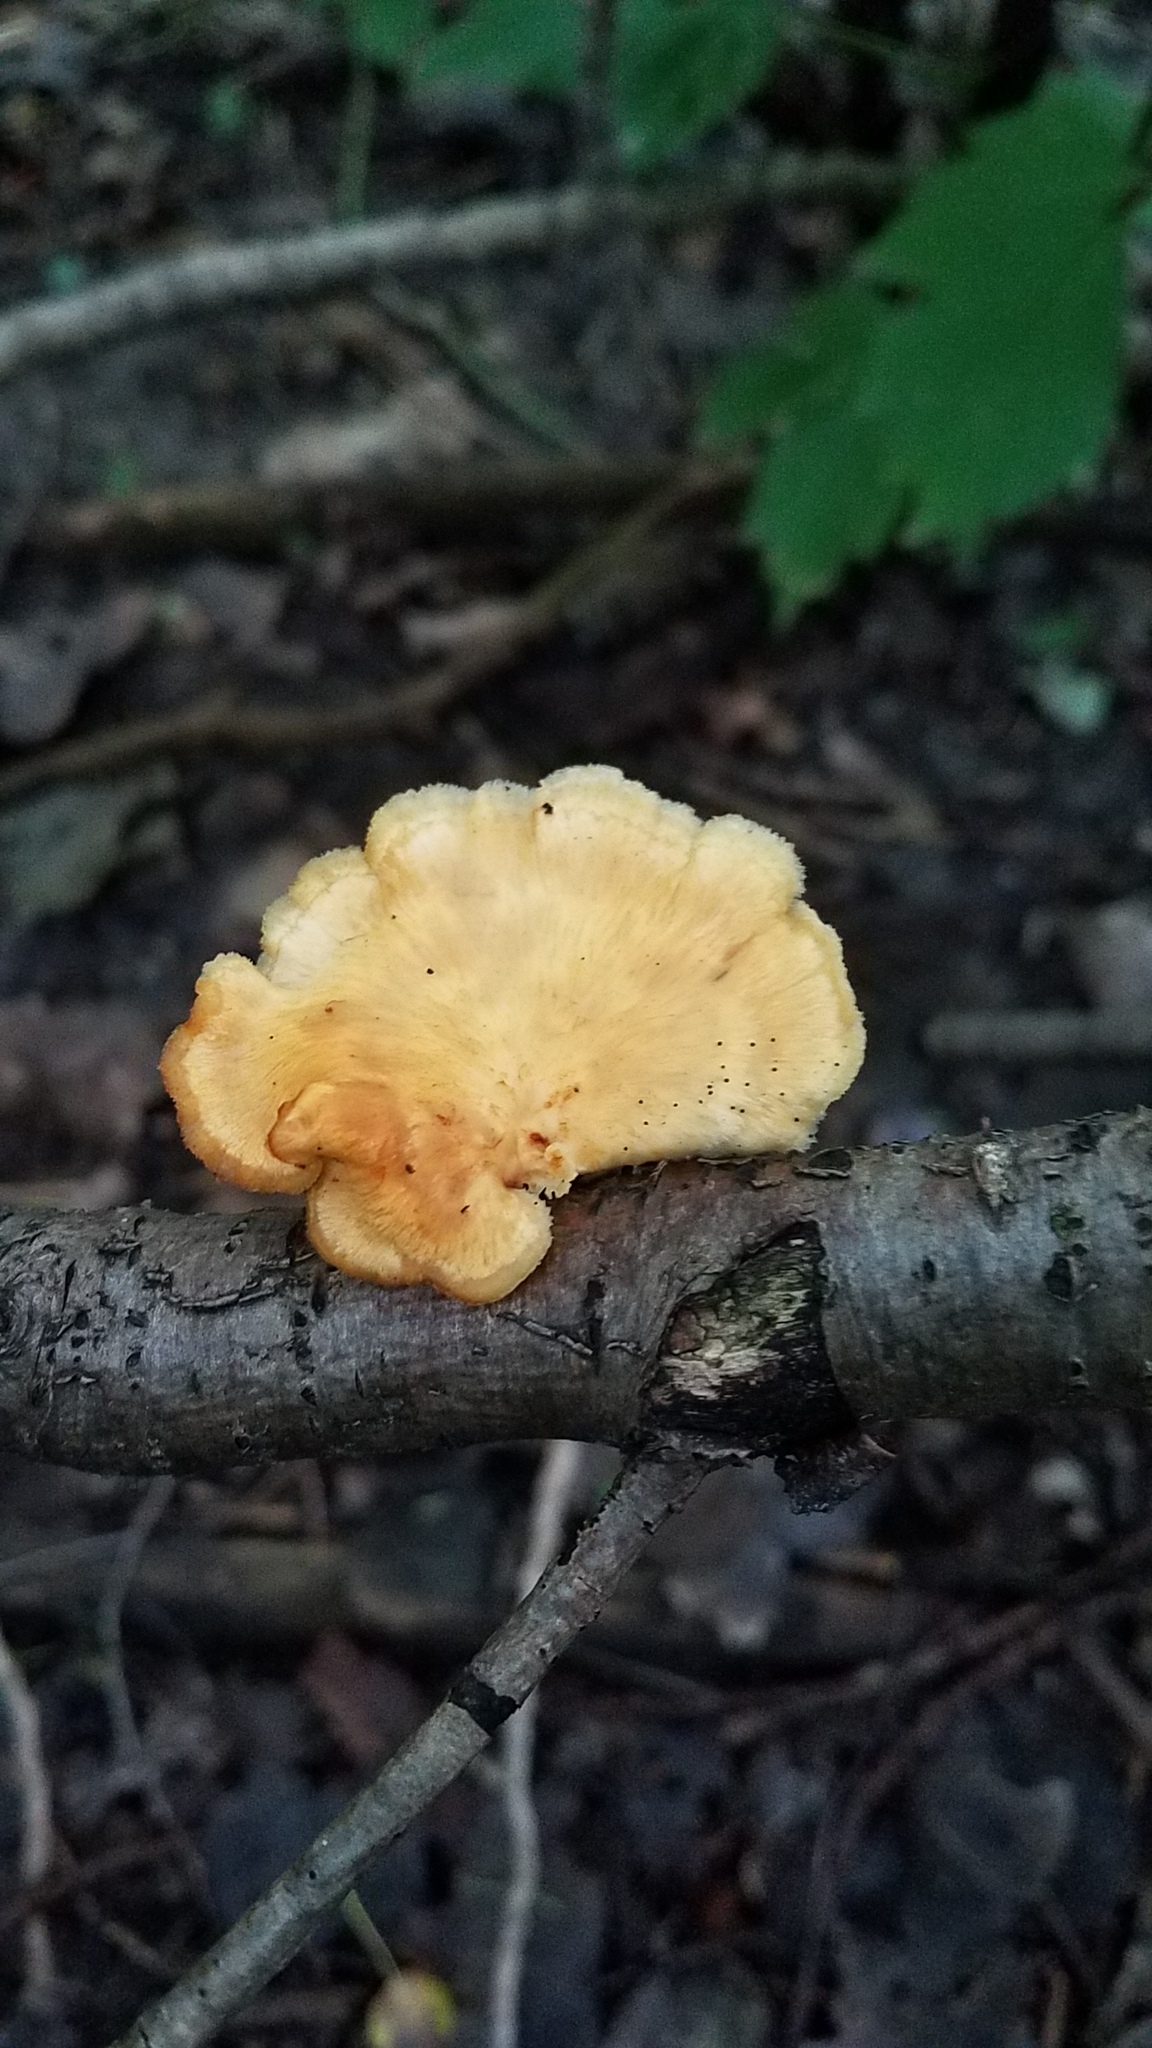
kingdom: Fungi
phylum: Basidiomycota
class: Agaricomycetes
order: Polyporales
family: Polyporaceae
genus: Neofavolus
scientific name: Neofavolus alveolaris
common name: Hexagonal-pored polypore
